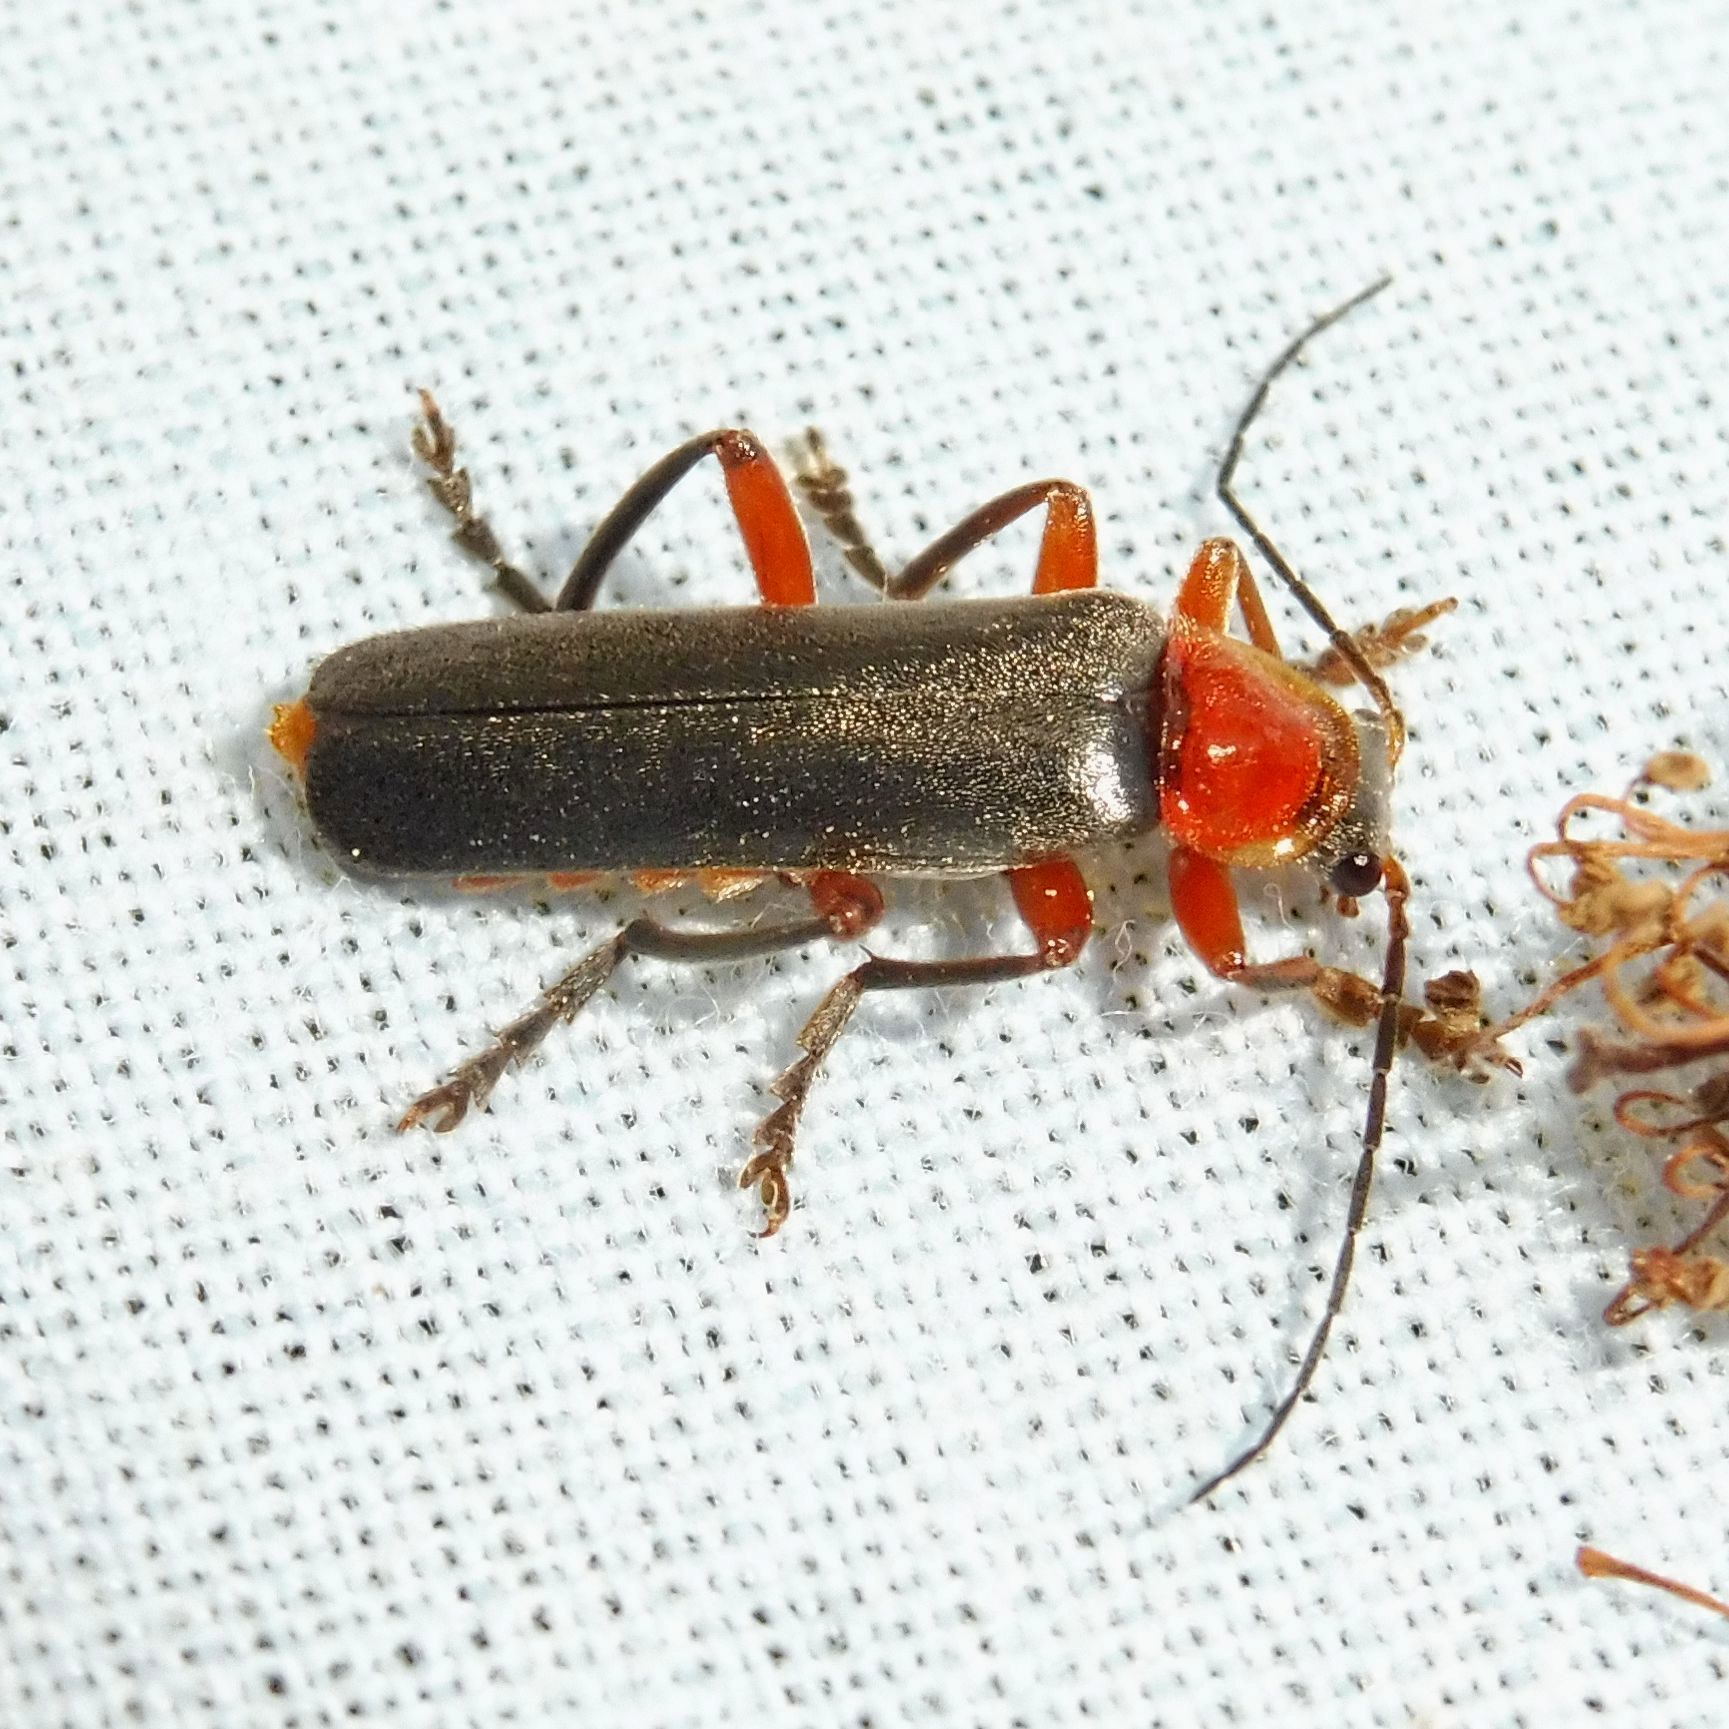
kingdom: Animalia
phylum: Arthropoda
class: Insecta
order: Coleoptera
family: Cantharidae
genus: Cantharis
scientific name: Cantharis pellucida
